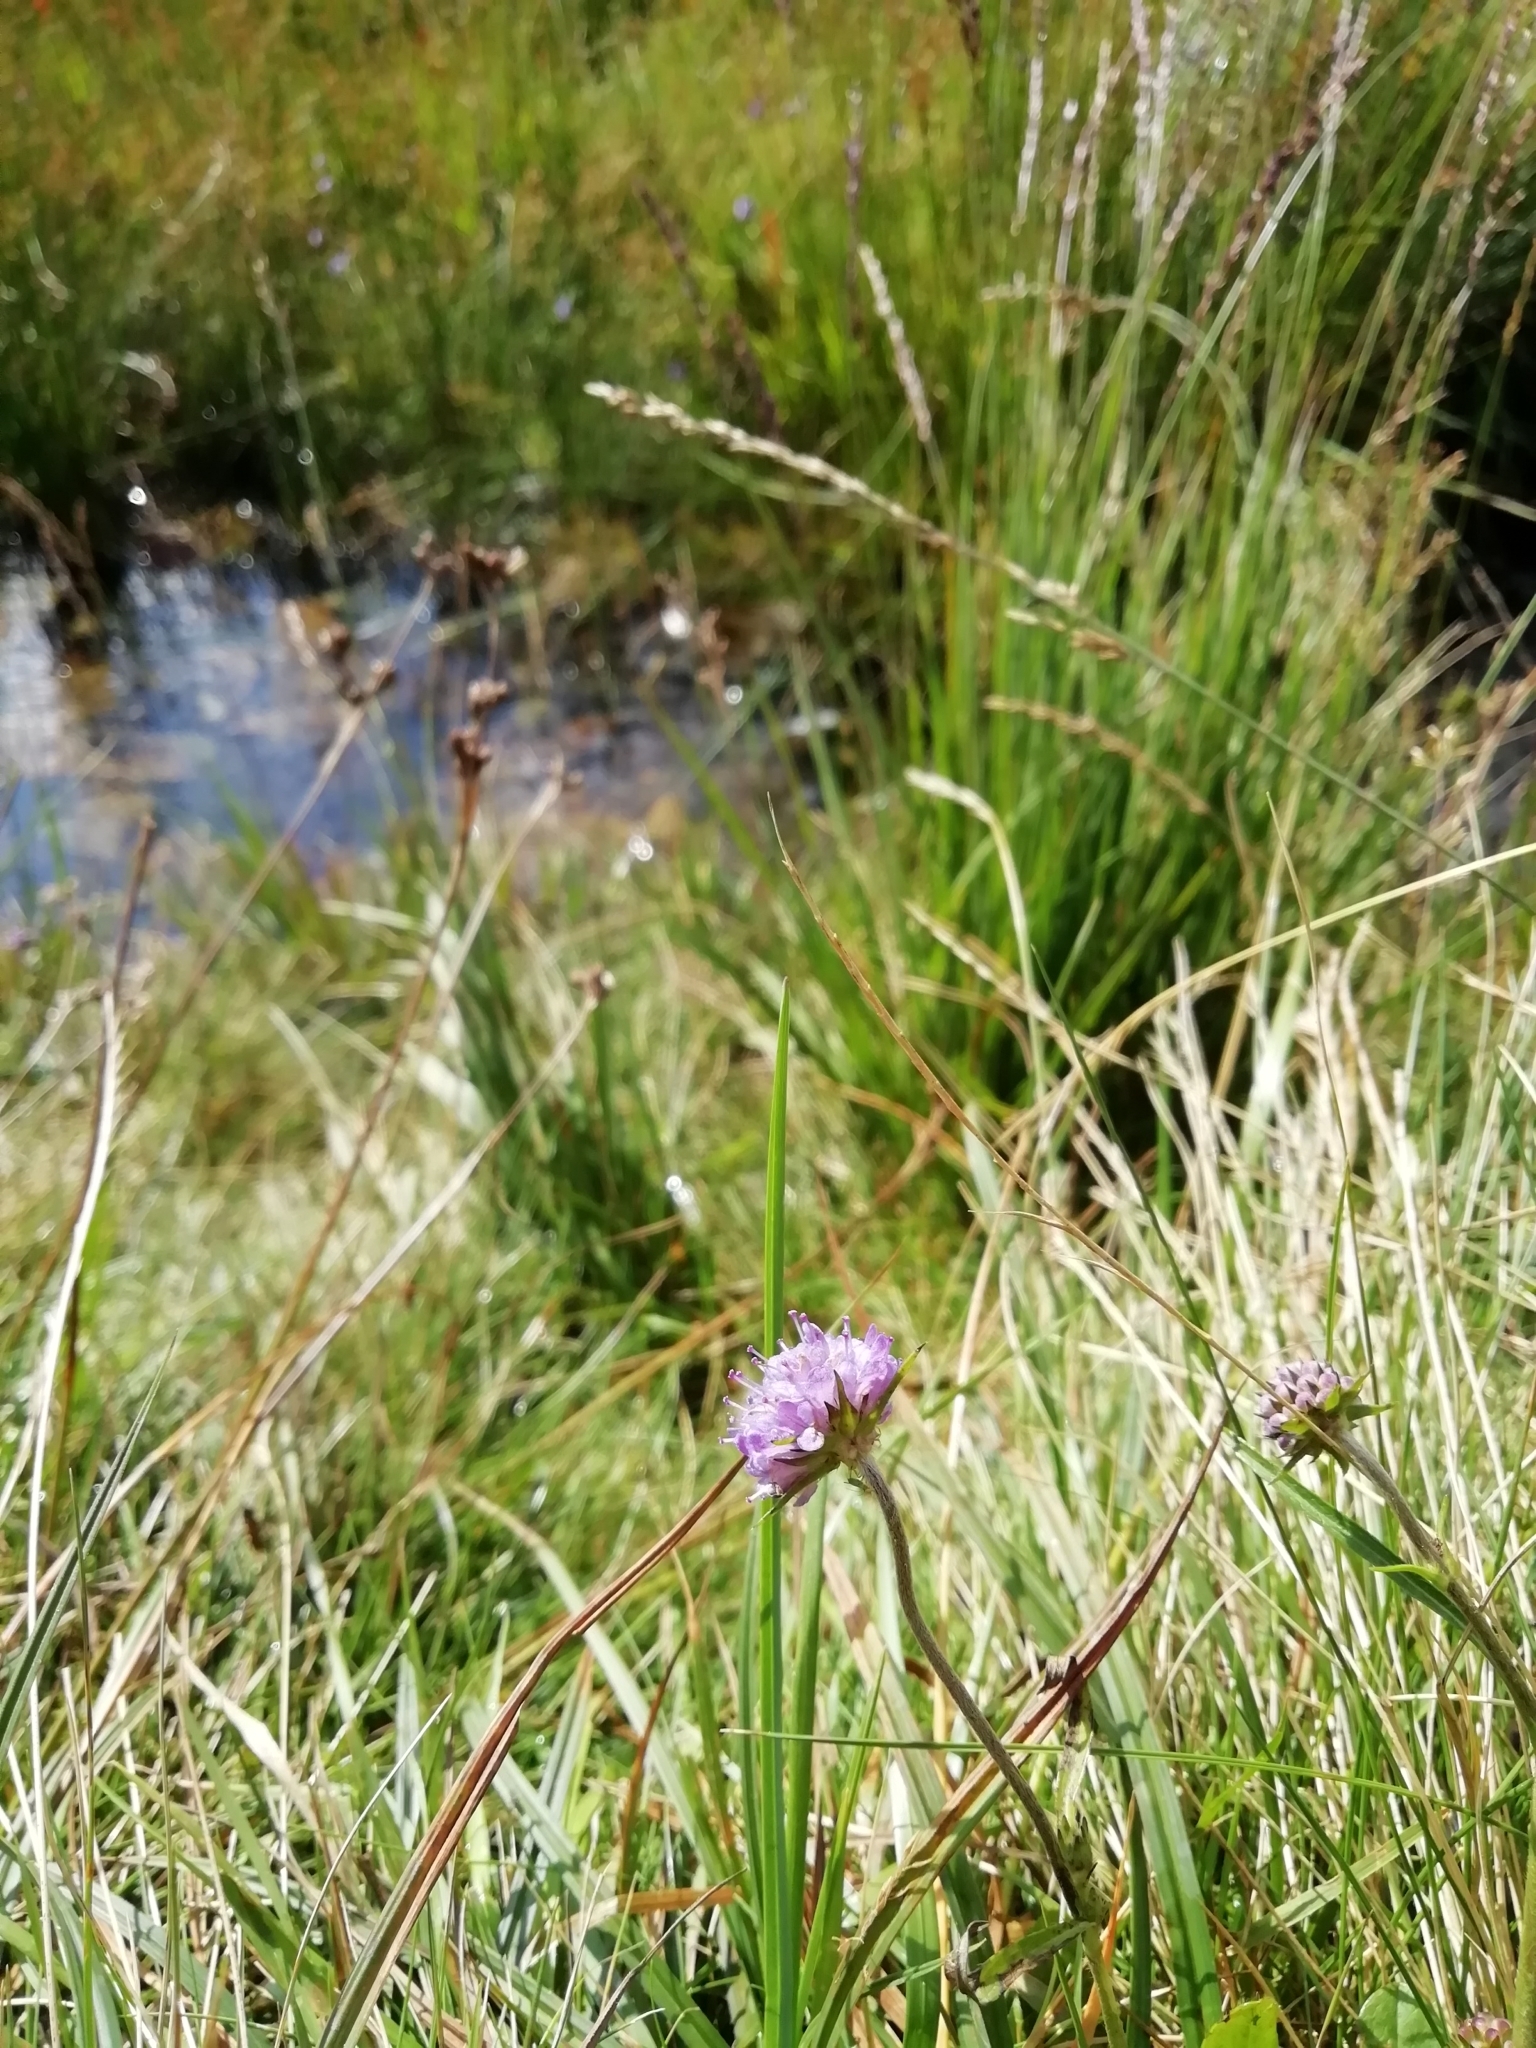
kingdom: Plantae
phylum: Tracheophyta
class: Magnoliopsida
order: Dipsacales
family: Caprifoliaceae
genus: Succisa
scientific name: Succisa pratensis
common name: Devil's-bit
